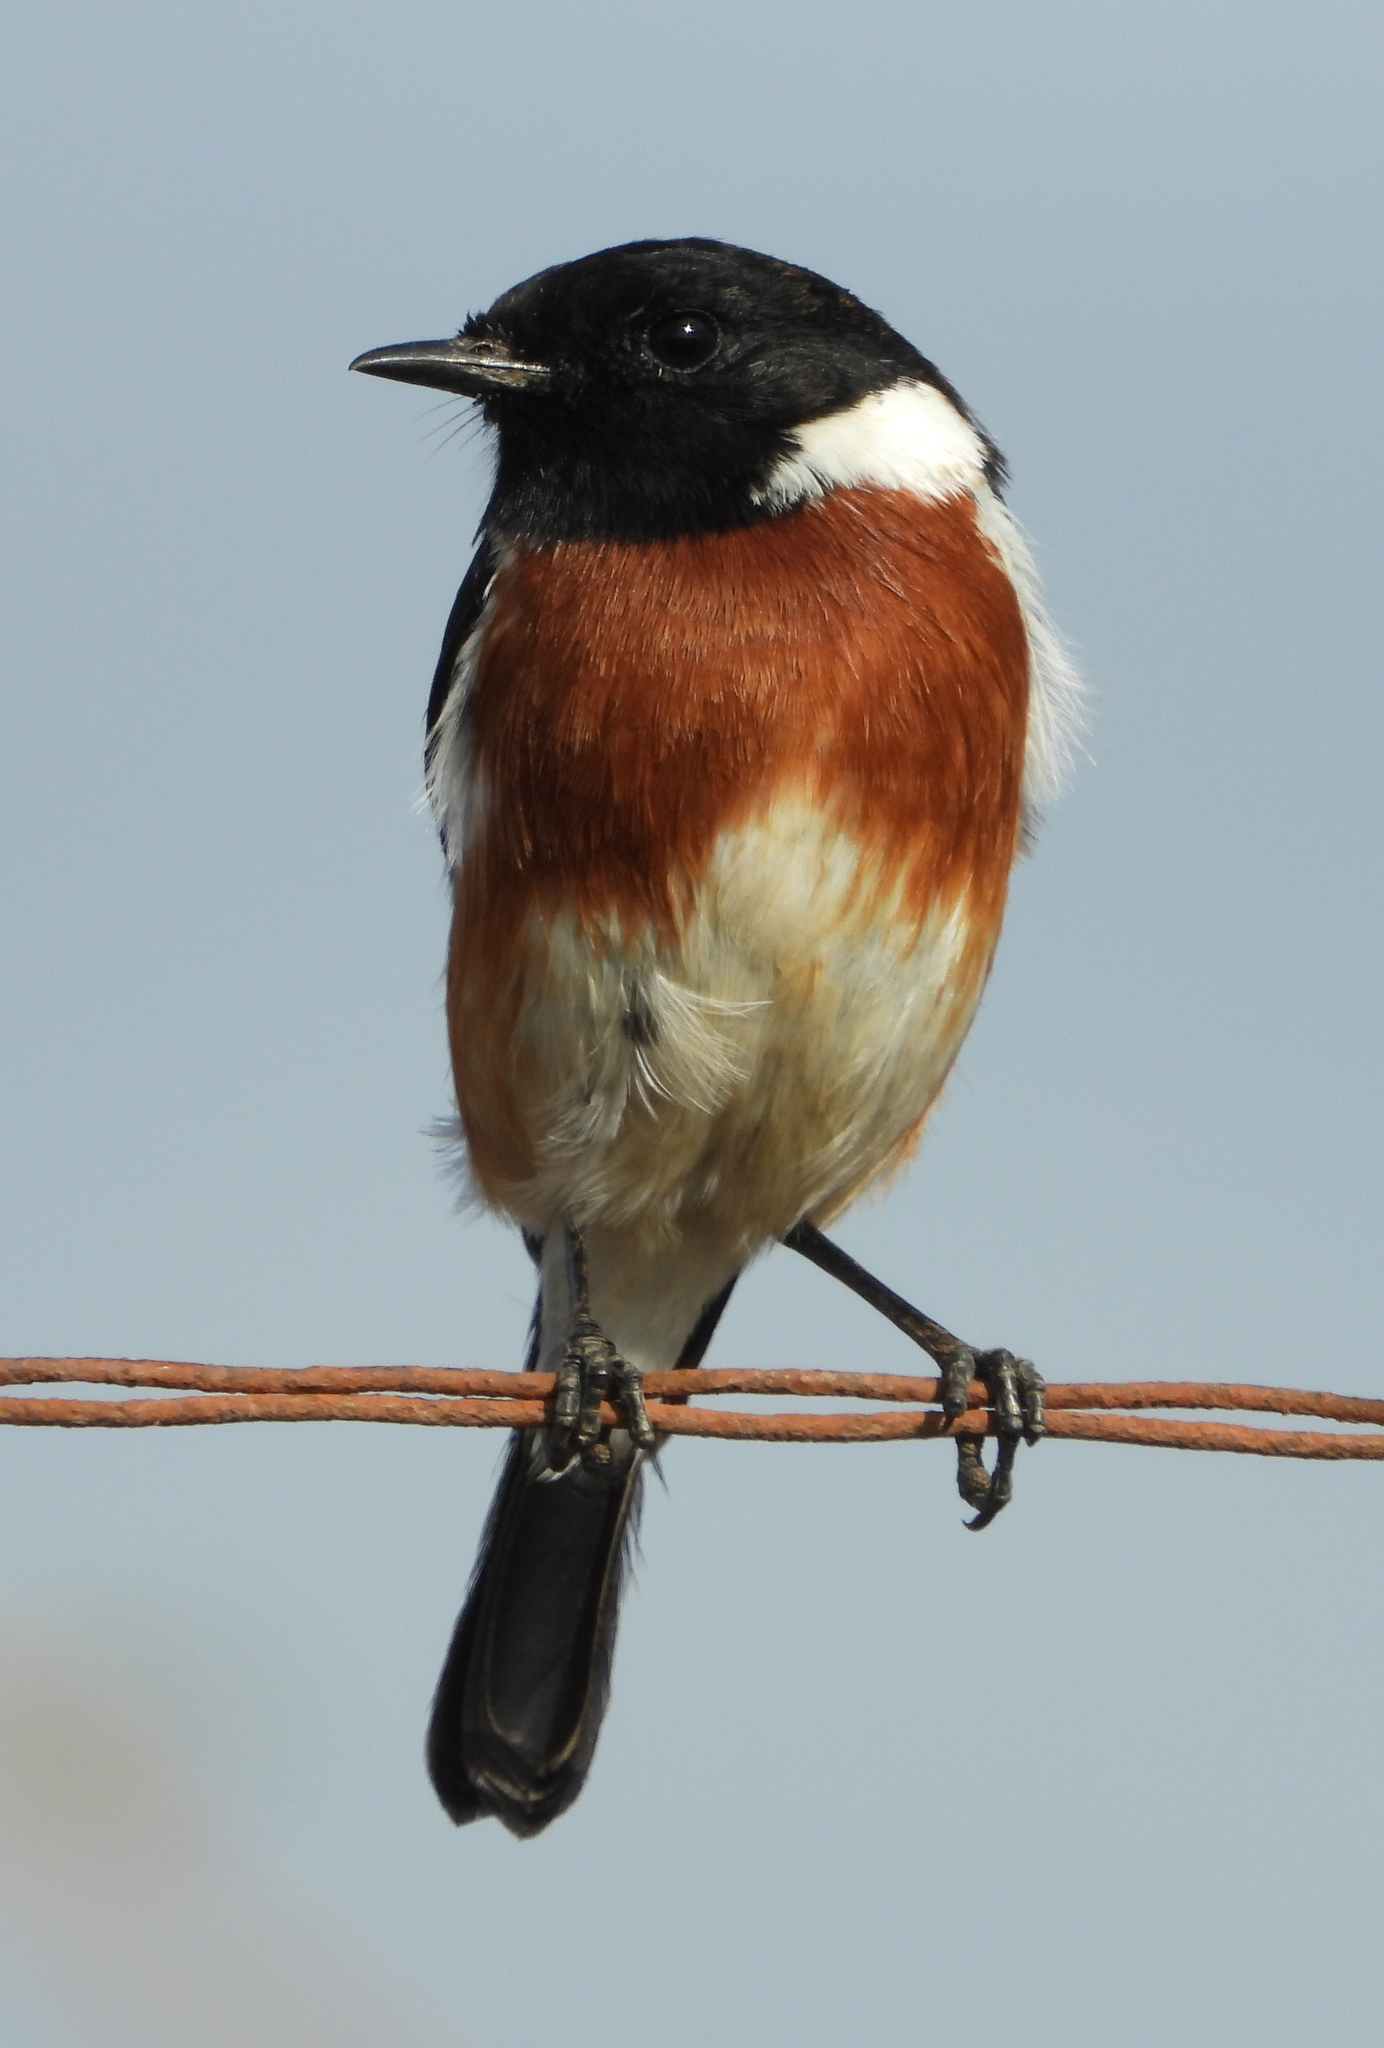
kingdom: Animalia
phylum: Chordata
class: Aves
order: Passeriformes
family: Muscicapidae
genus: Saxicola
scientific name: Saxicola torquatus
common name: African stonechat
